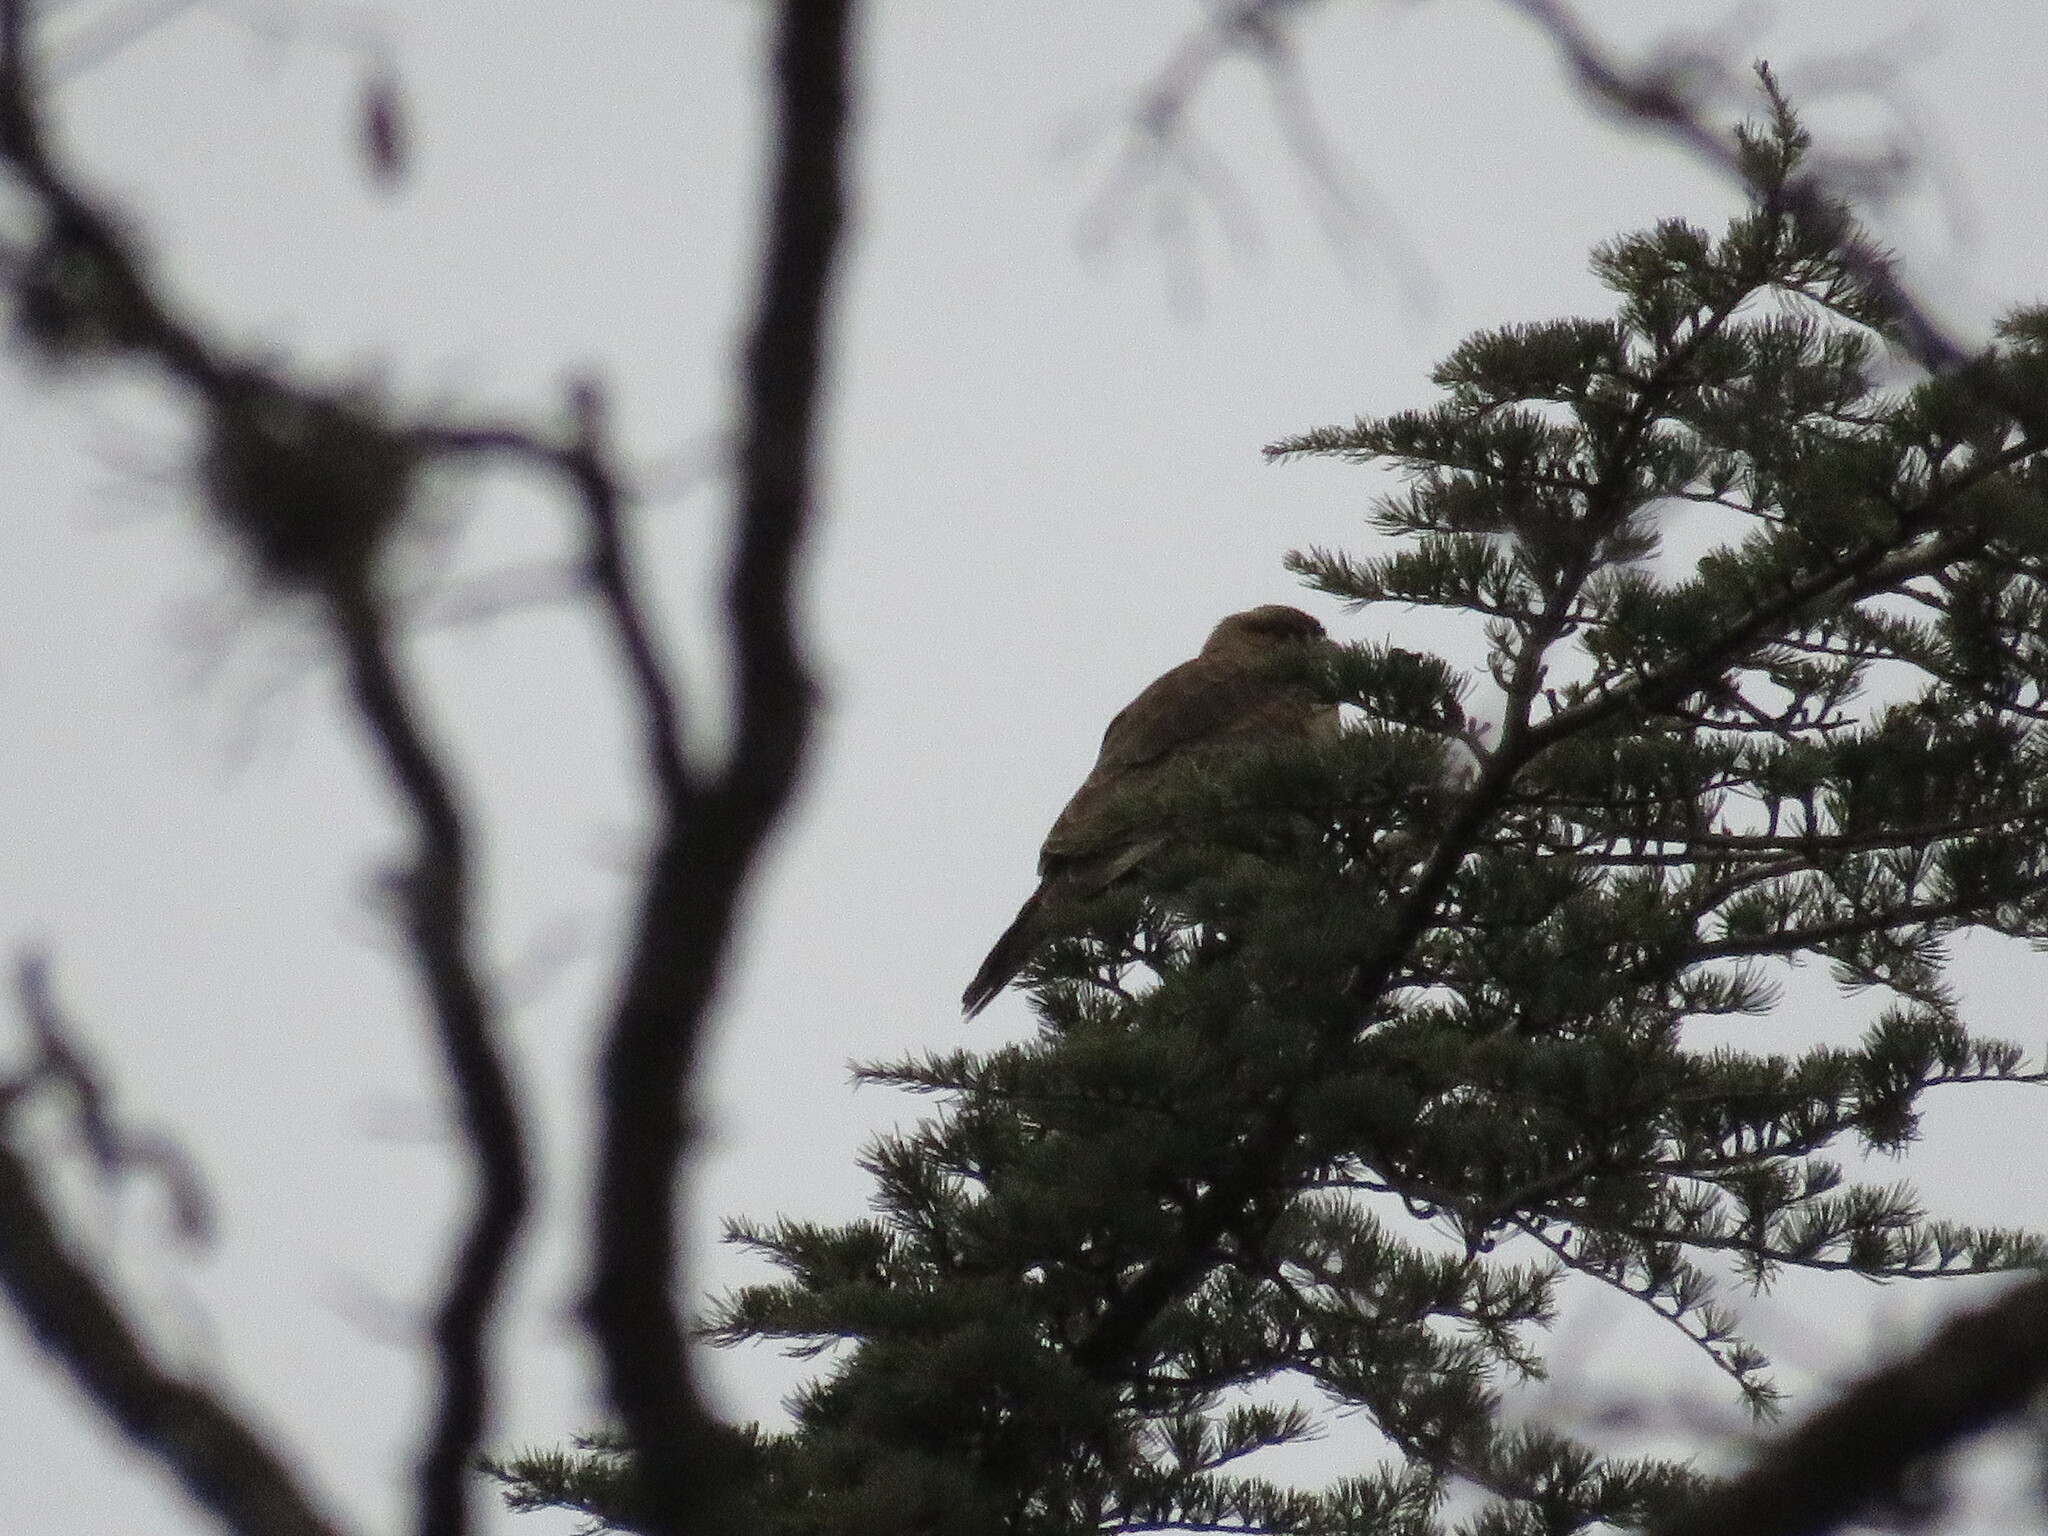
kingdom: Animalia
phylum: Chordata
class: Aves
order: Falconiformes
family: Falconidae
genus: Daptrius
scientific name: Daptrius
